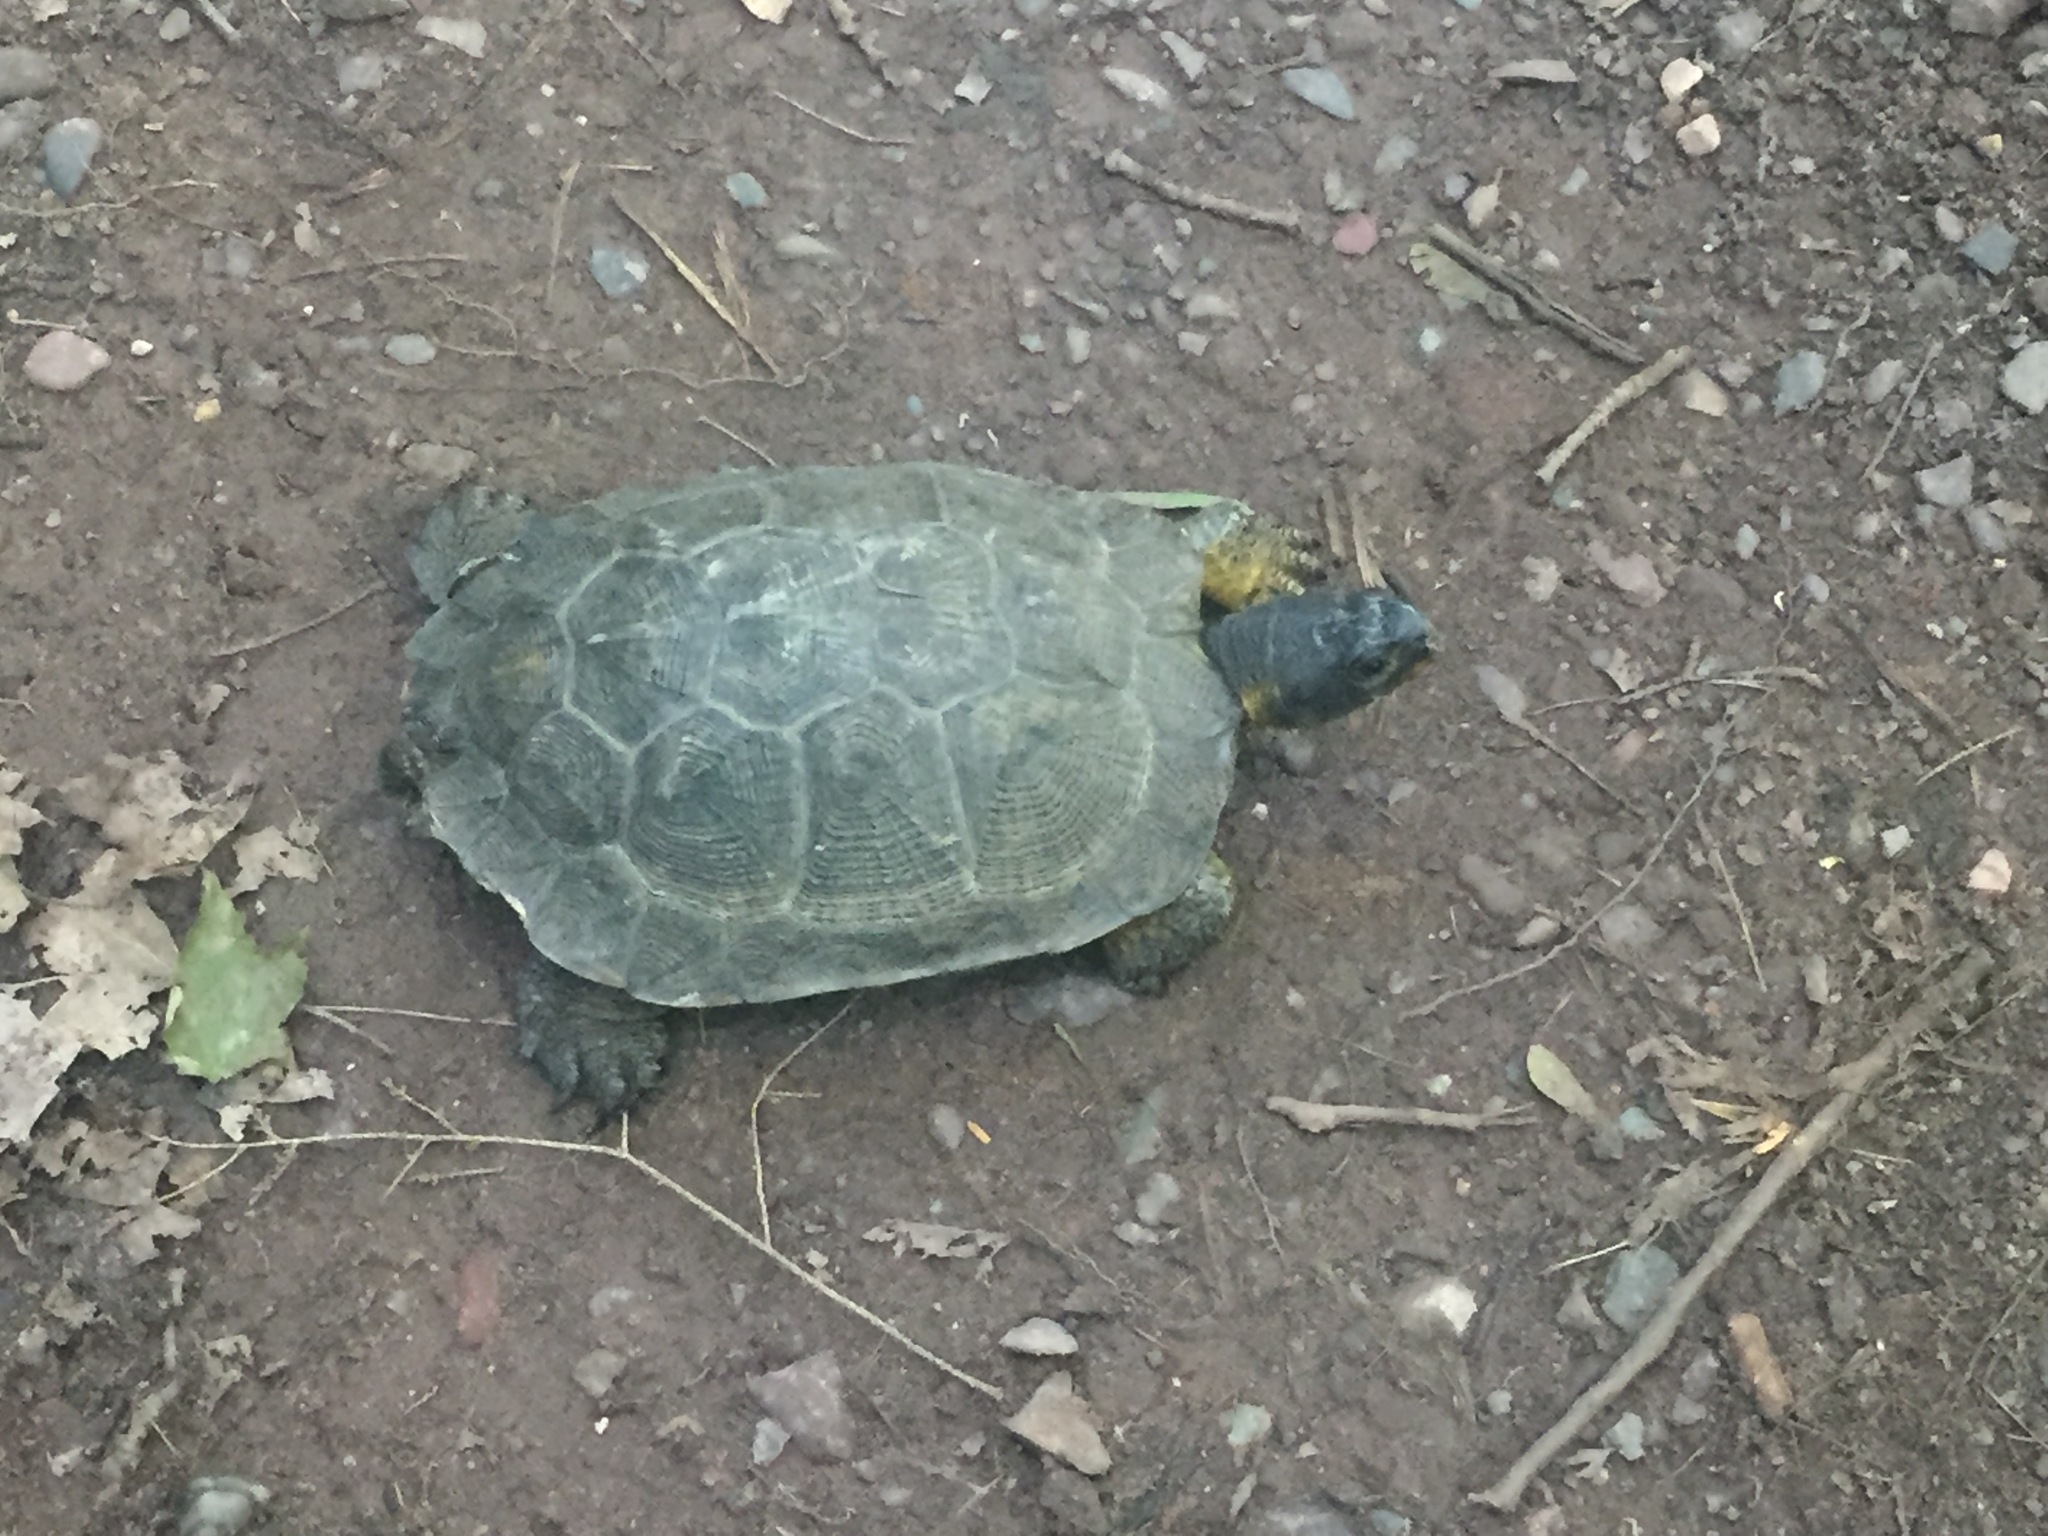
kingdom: Animalia
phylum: Chordata
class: Testudines
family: Emydidae
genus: Glyptemys
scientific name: Glyptemys insculpta
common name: Wood turtle
